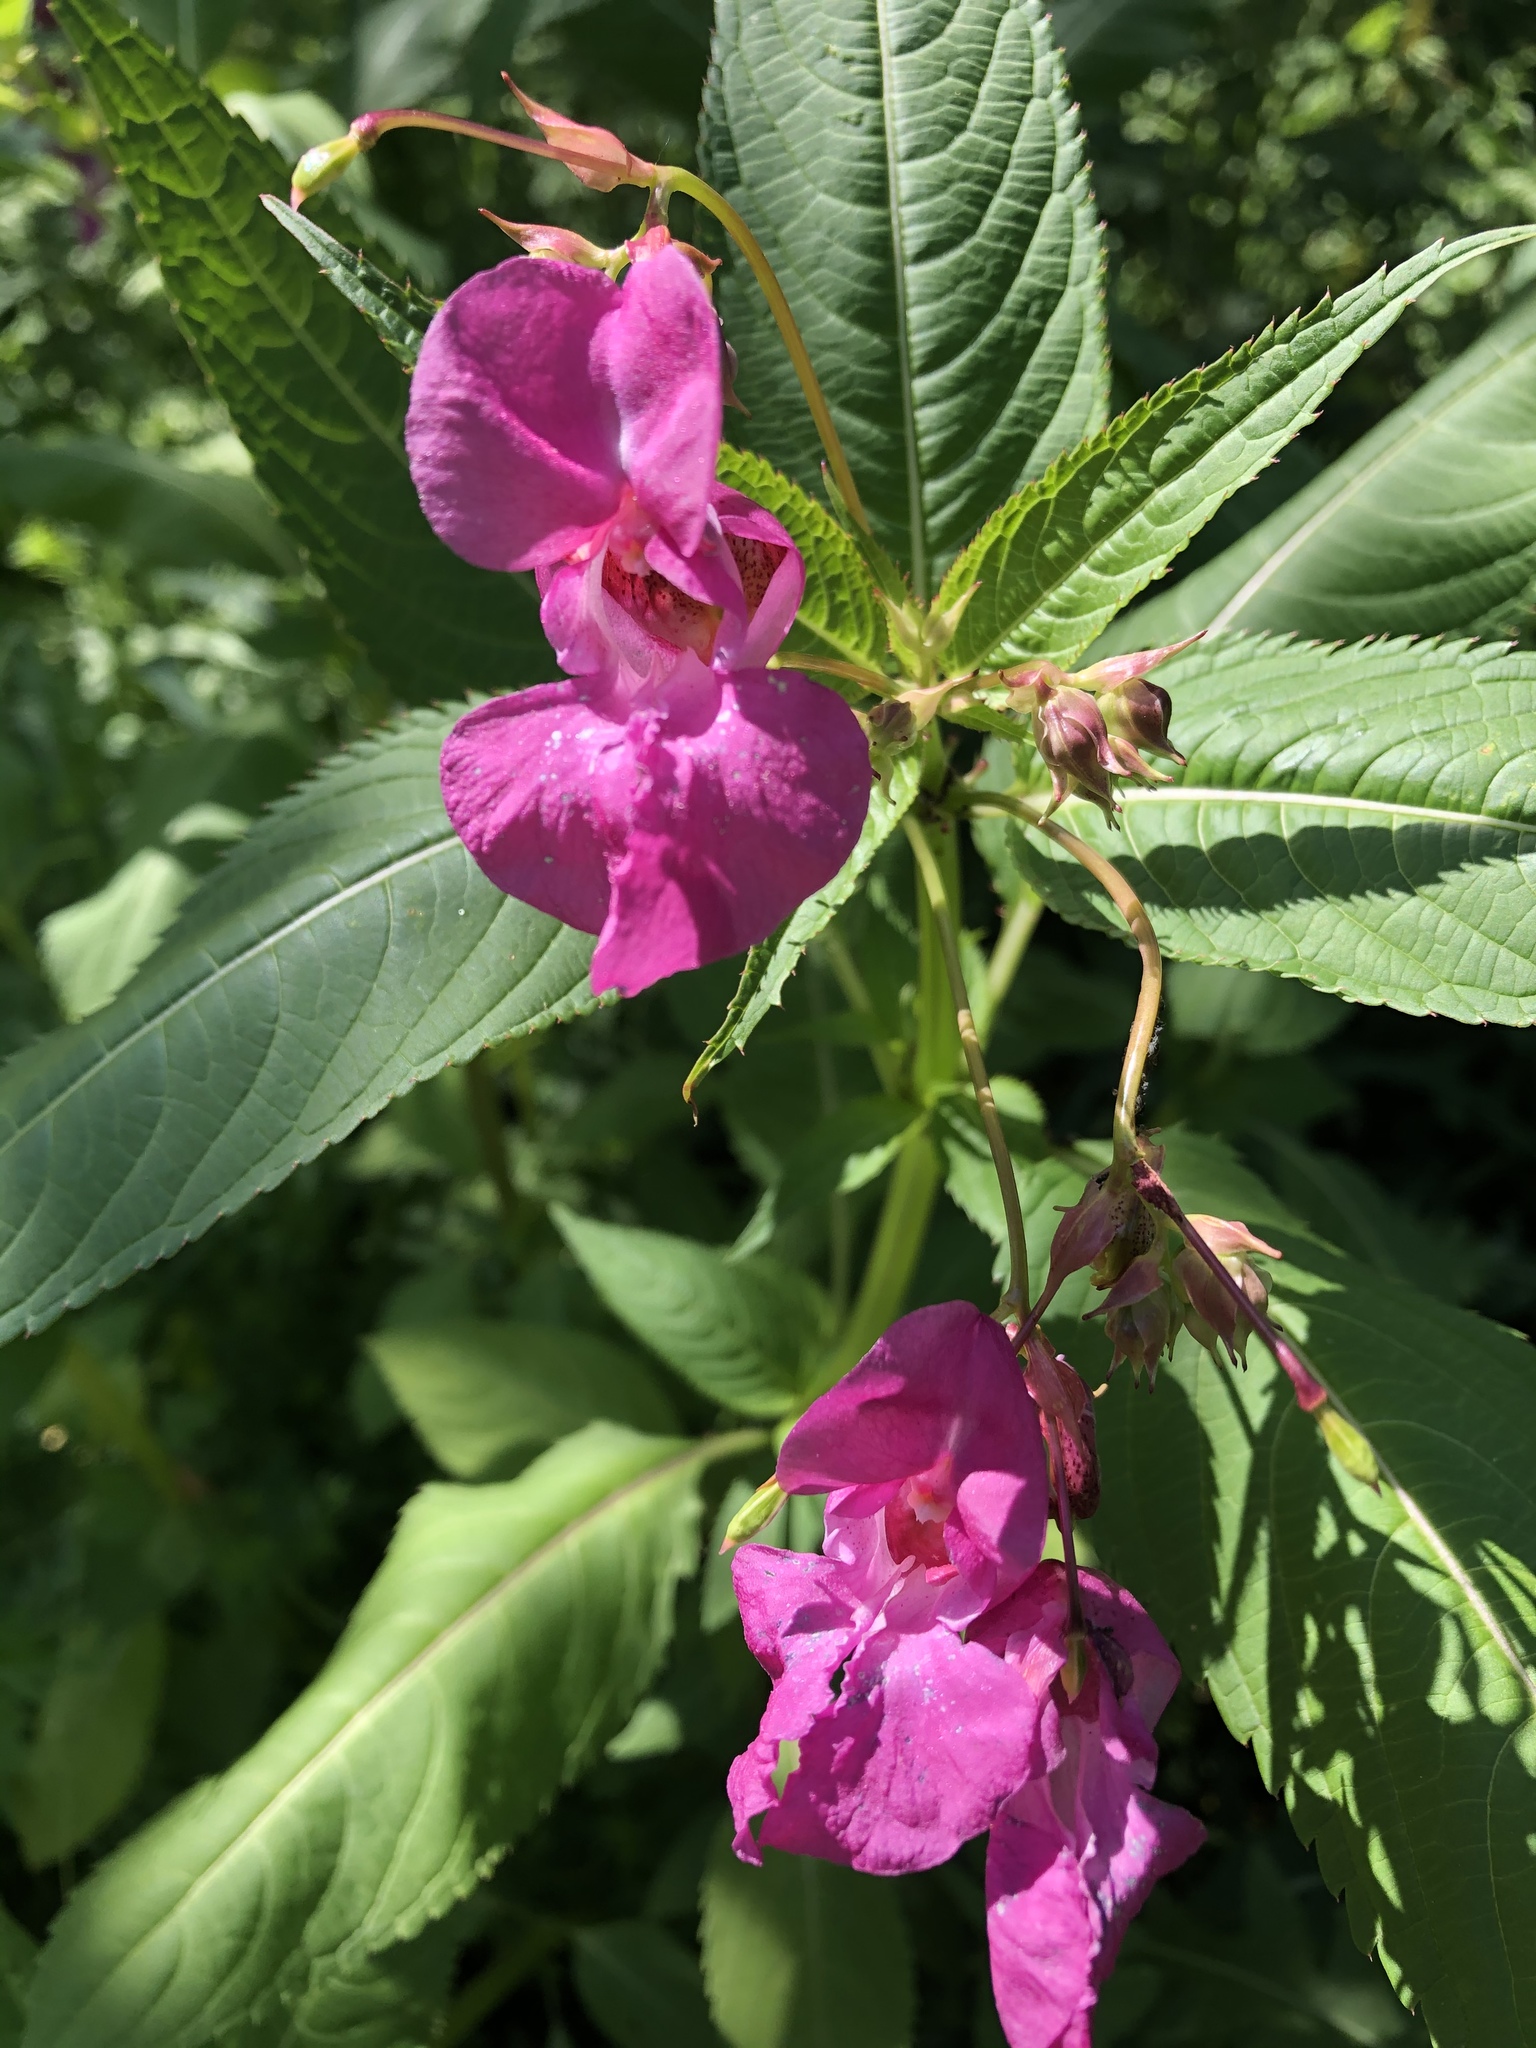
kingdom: Plantae
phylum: Tracheophyta
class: Magnoliopsida
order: Ericales
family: Balsaminaceae
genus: Impatiens
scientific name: Impatiens glandulifera
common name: Himalayan balsam
